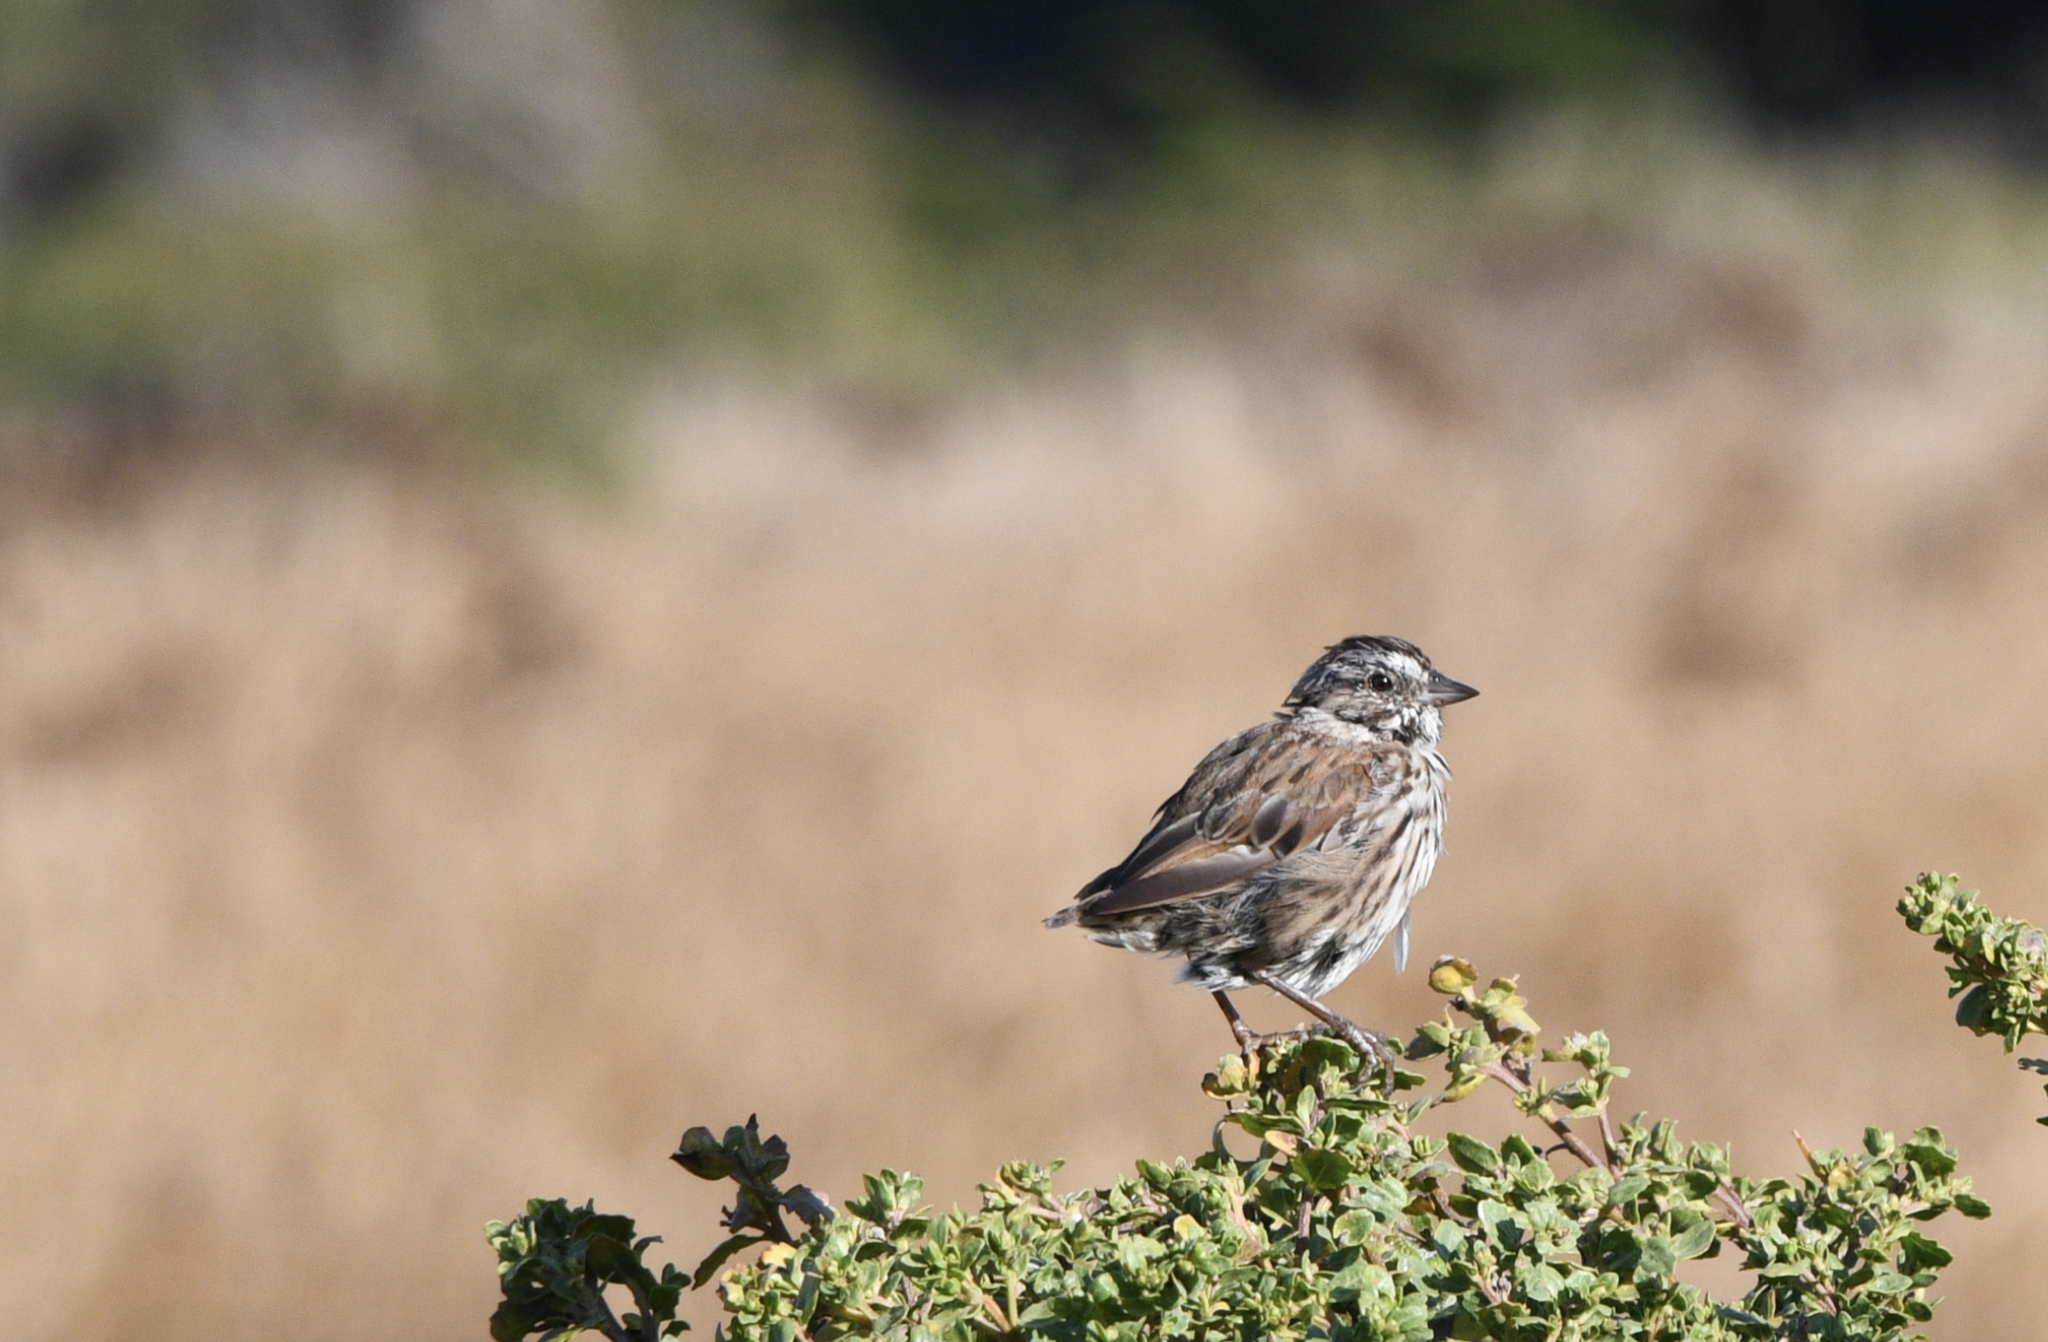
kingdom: Animalia
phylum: Chordata
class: Aves
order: Passeriformes
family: Passerellidae
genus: Melospiza
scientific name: Melospiza melodia
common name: Song sparrow
